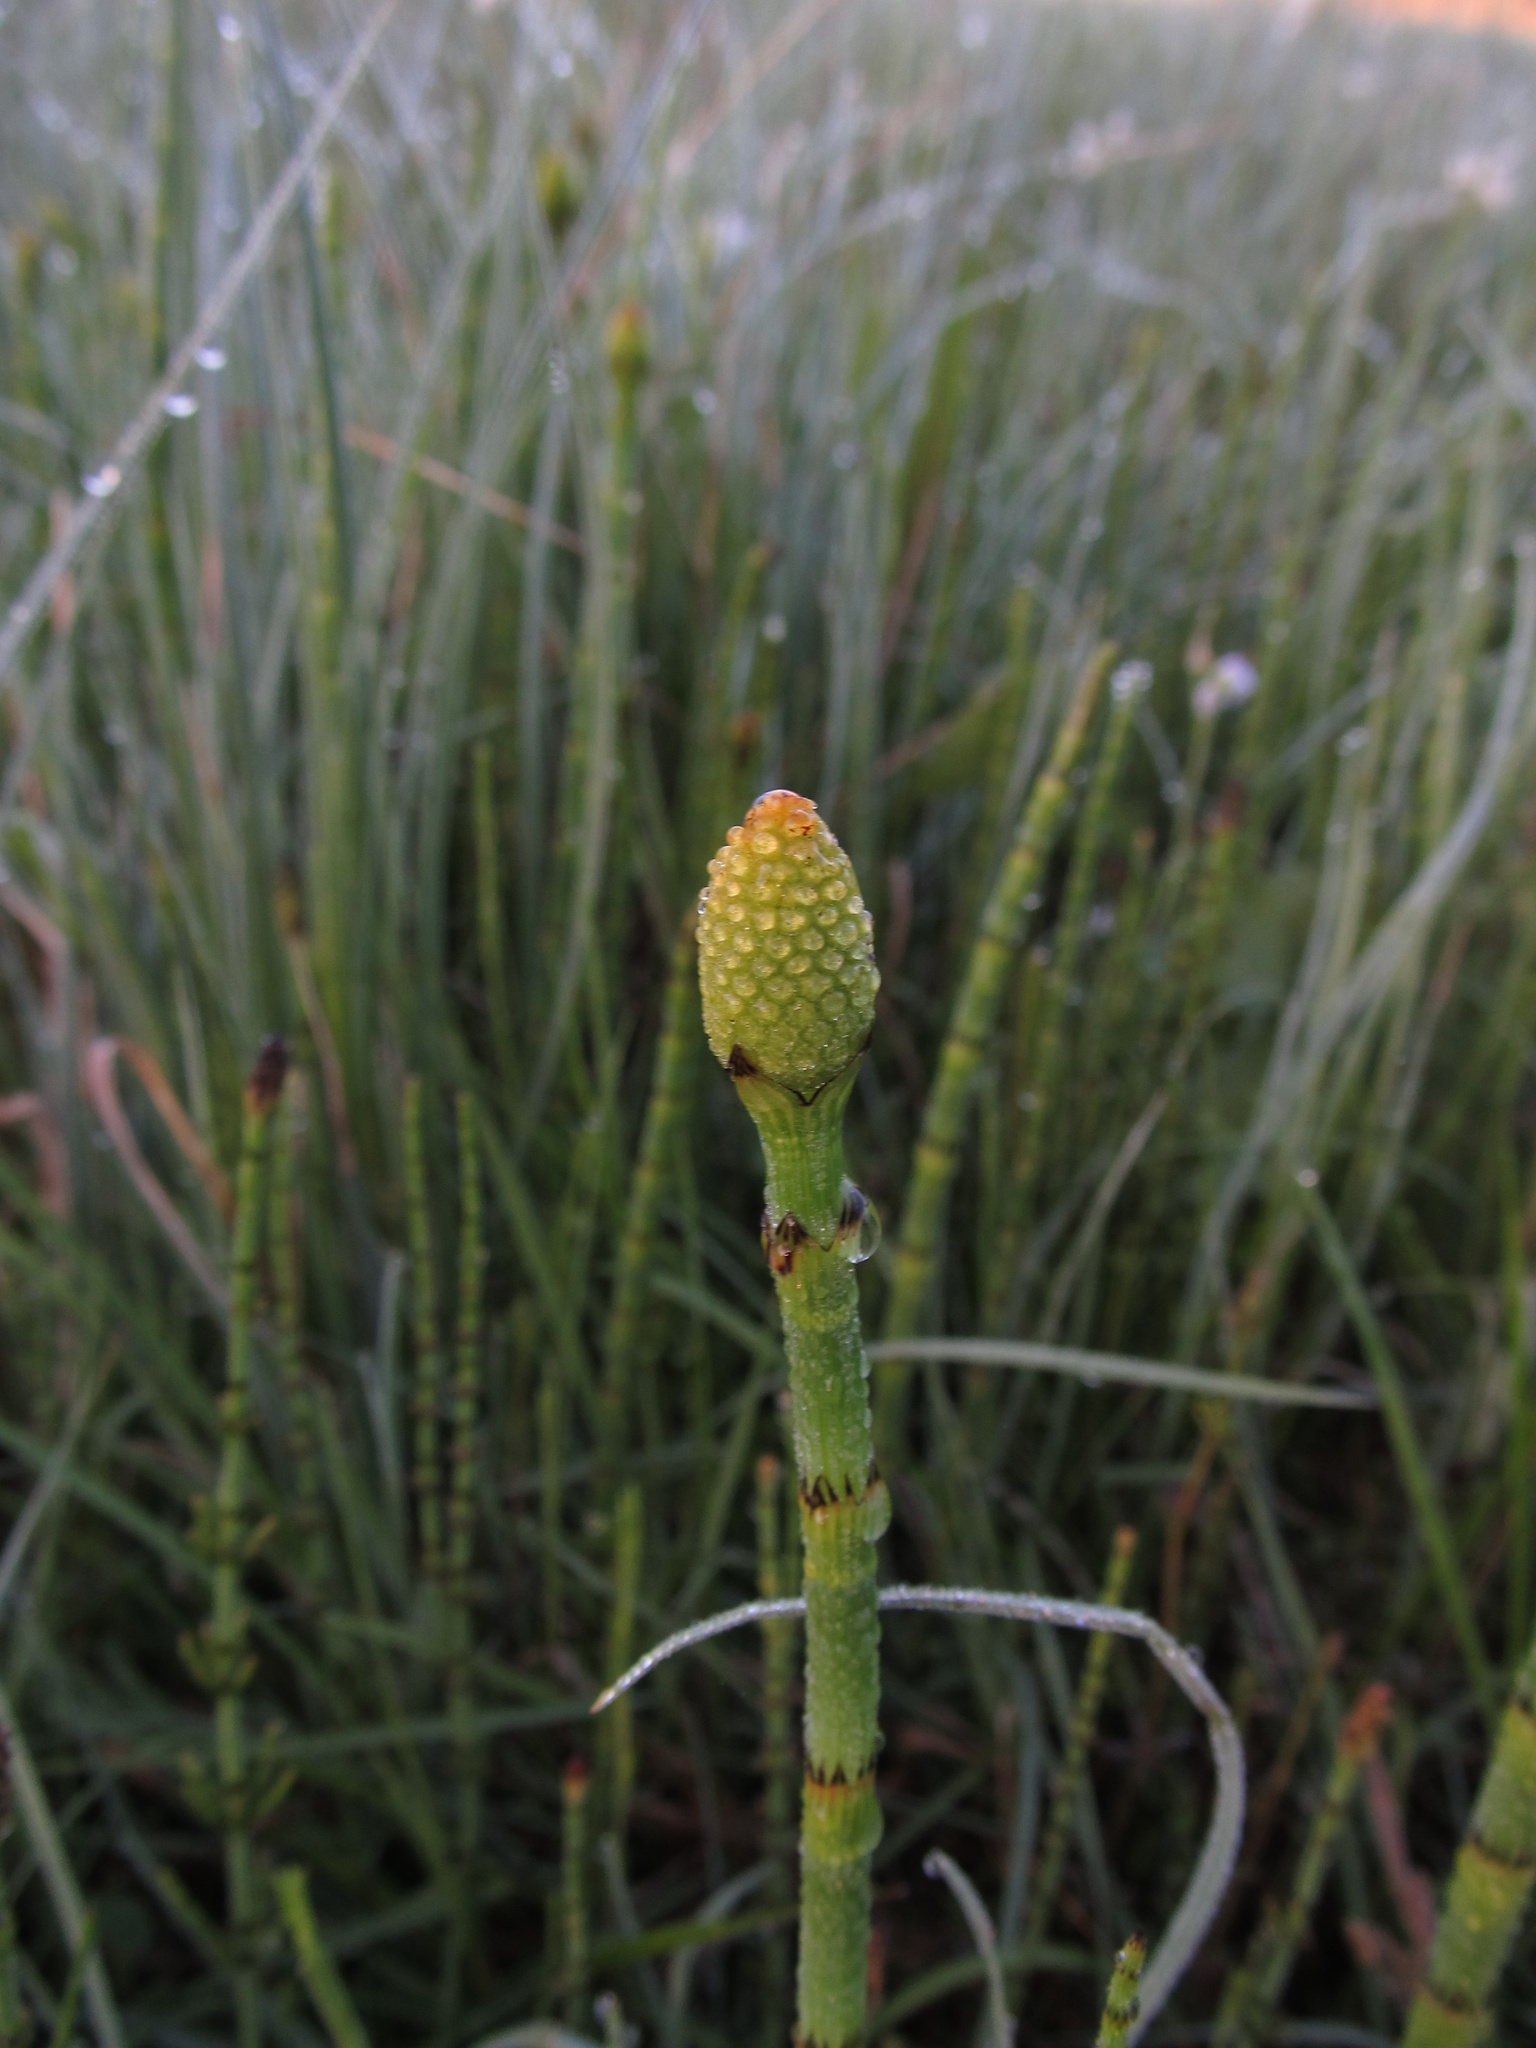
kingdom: Plantae
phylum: Tracheophyta
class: Polypodiopsida
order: Equisetales
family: Equisetaceae
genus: Equisetum
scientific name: Equisetum fluviatile
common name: Water horsetail
